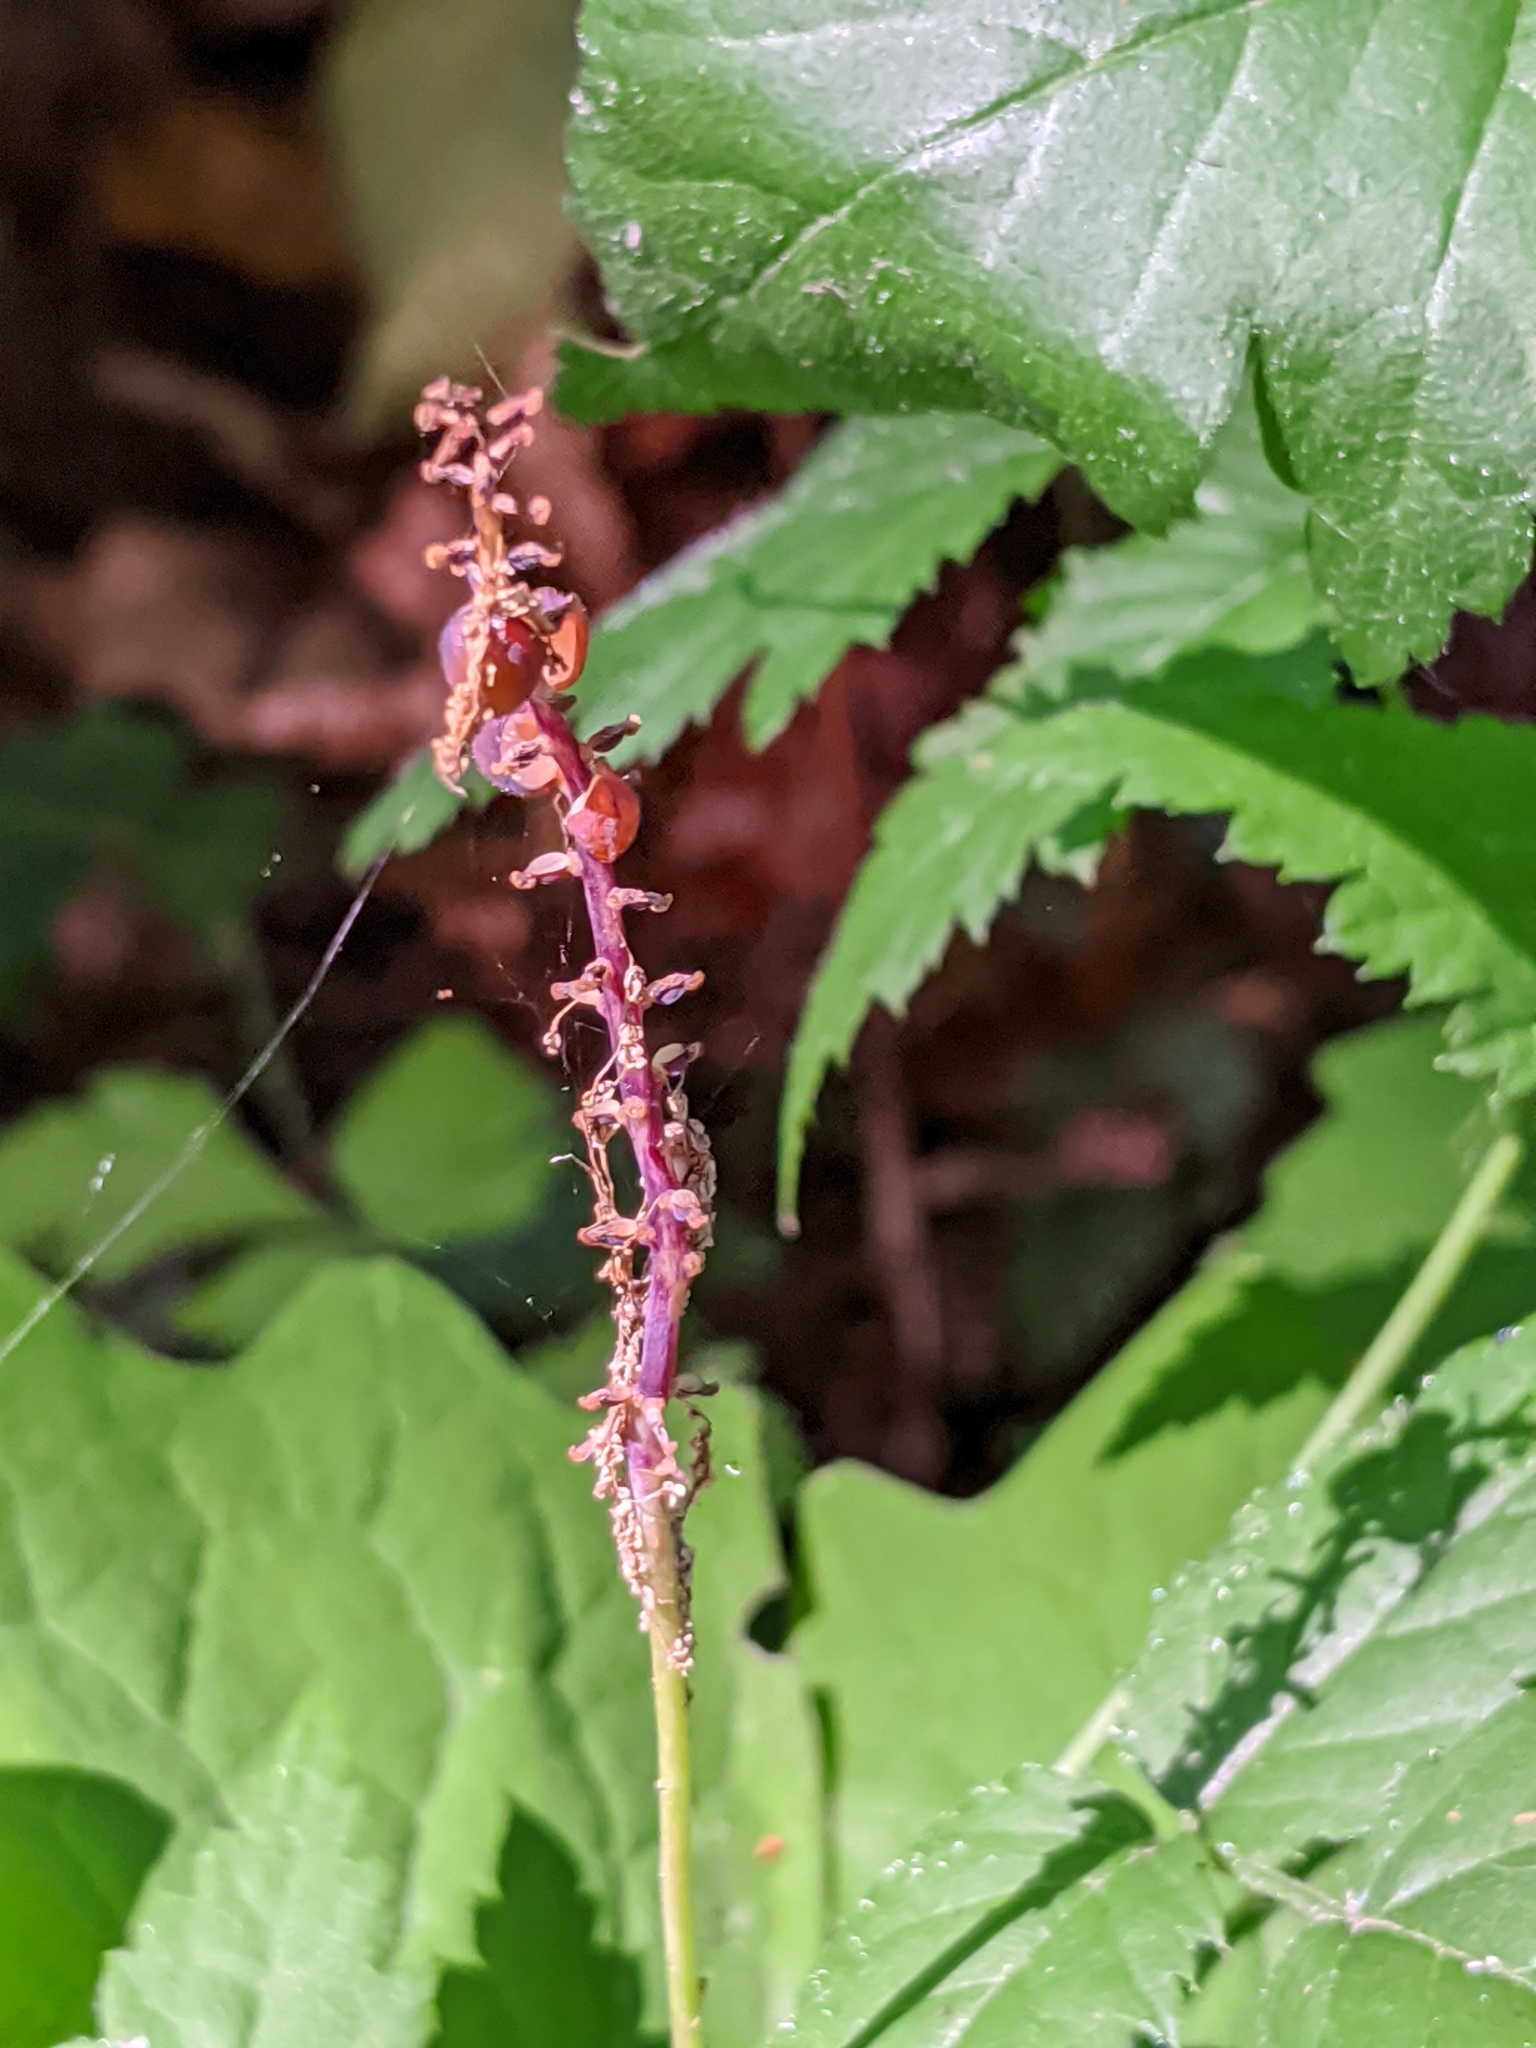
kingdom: Plantae
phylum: Tracheophyta
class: Magnoliopsida
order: Ranunculales
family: Berberidaceae
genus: Achlys
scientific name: Achlys californica
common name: California deer-foot
